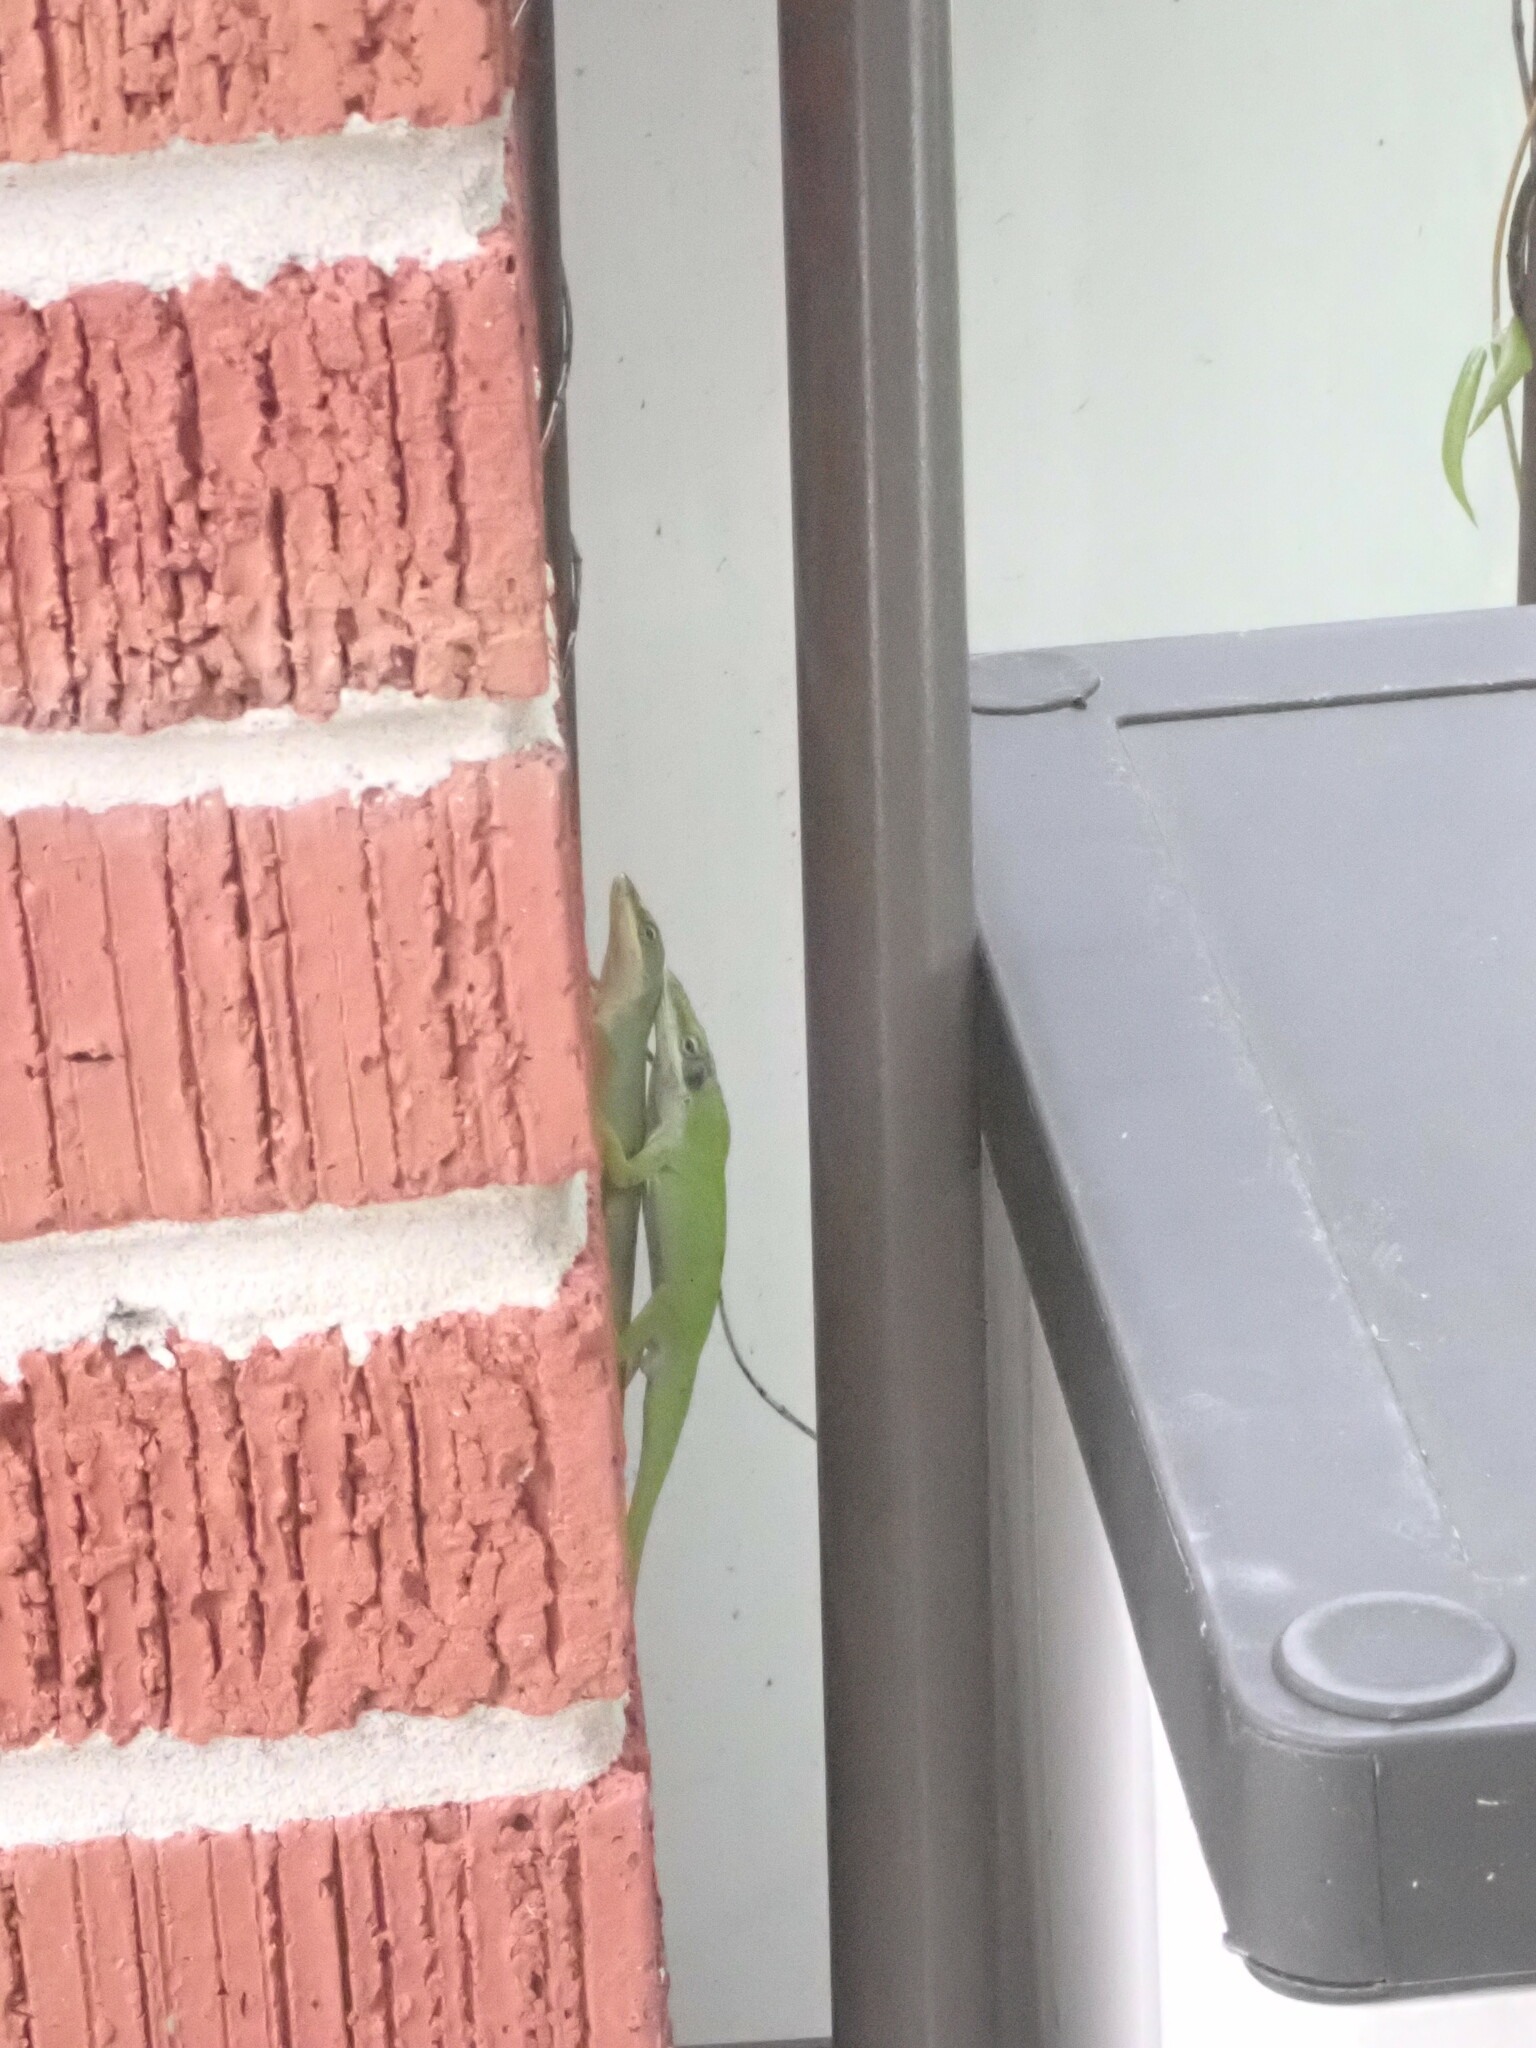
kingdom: Animalia
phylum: Chordata
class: Squamata
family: Dactyloidae
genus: Anolis
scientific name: Anolis carolinensis
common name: Green anole
